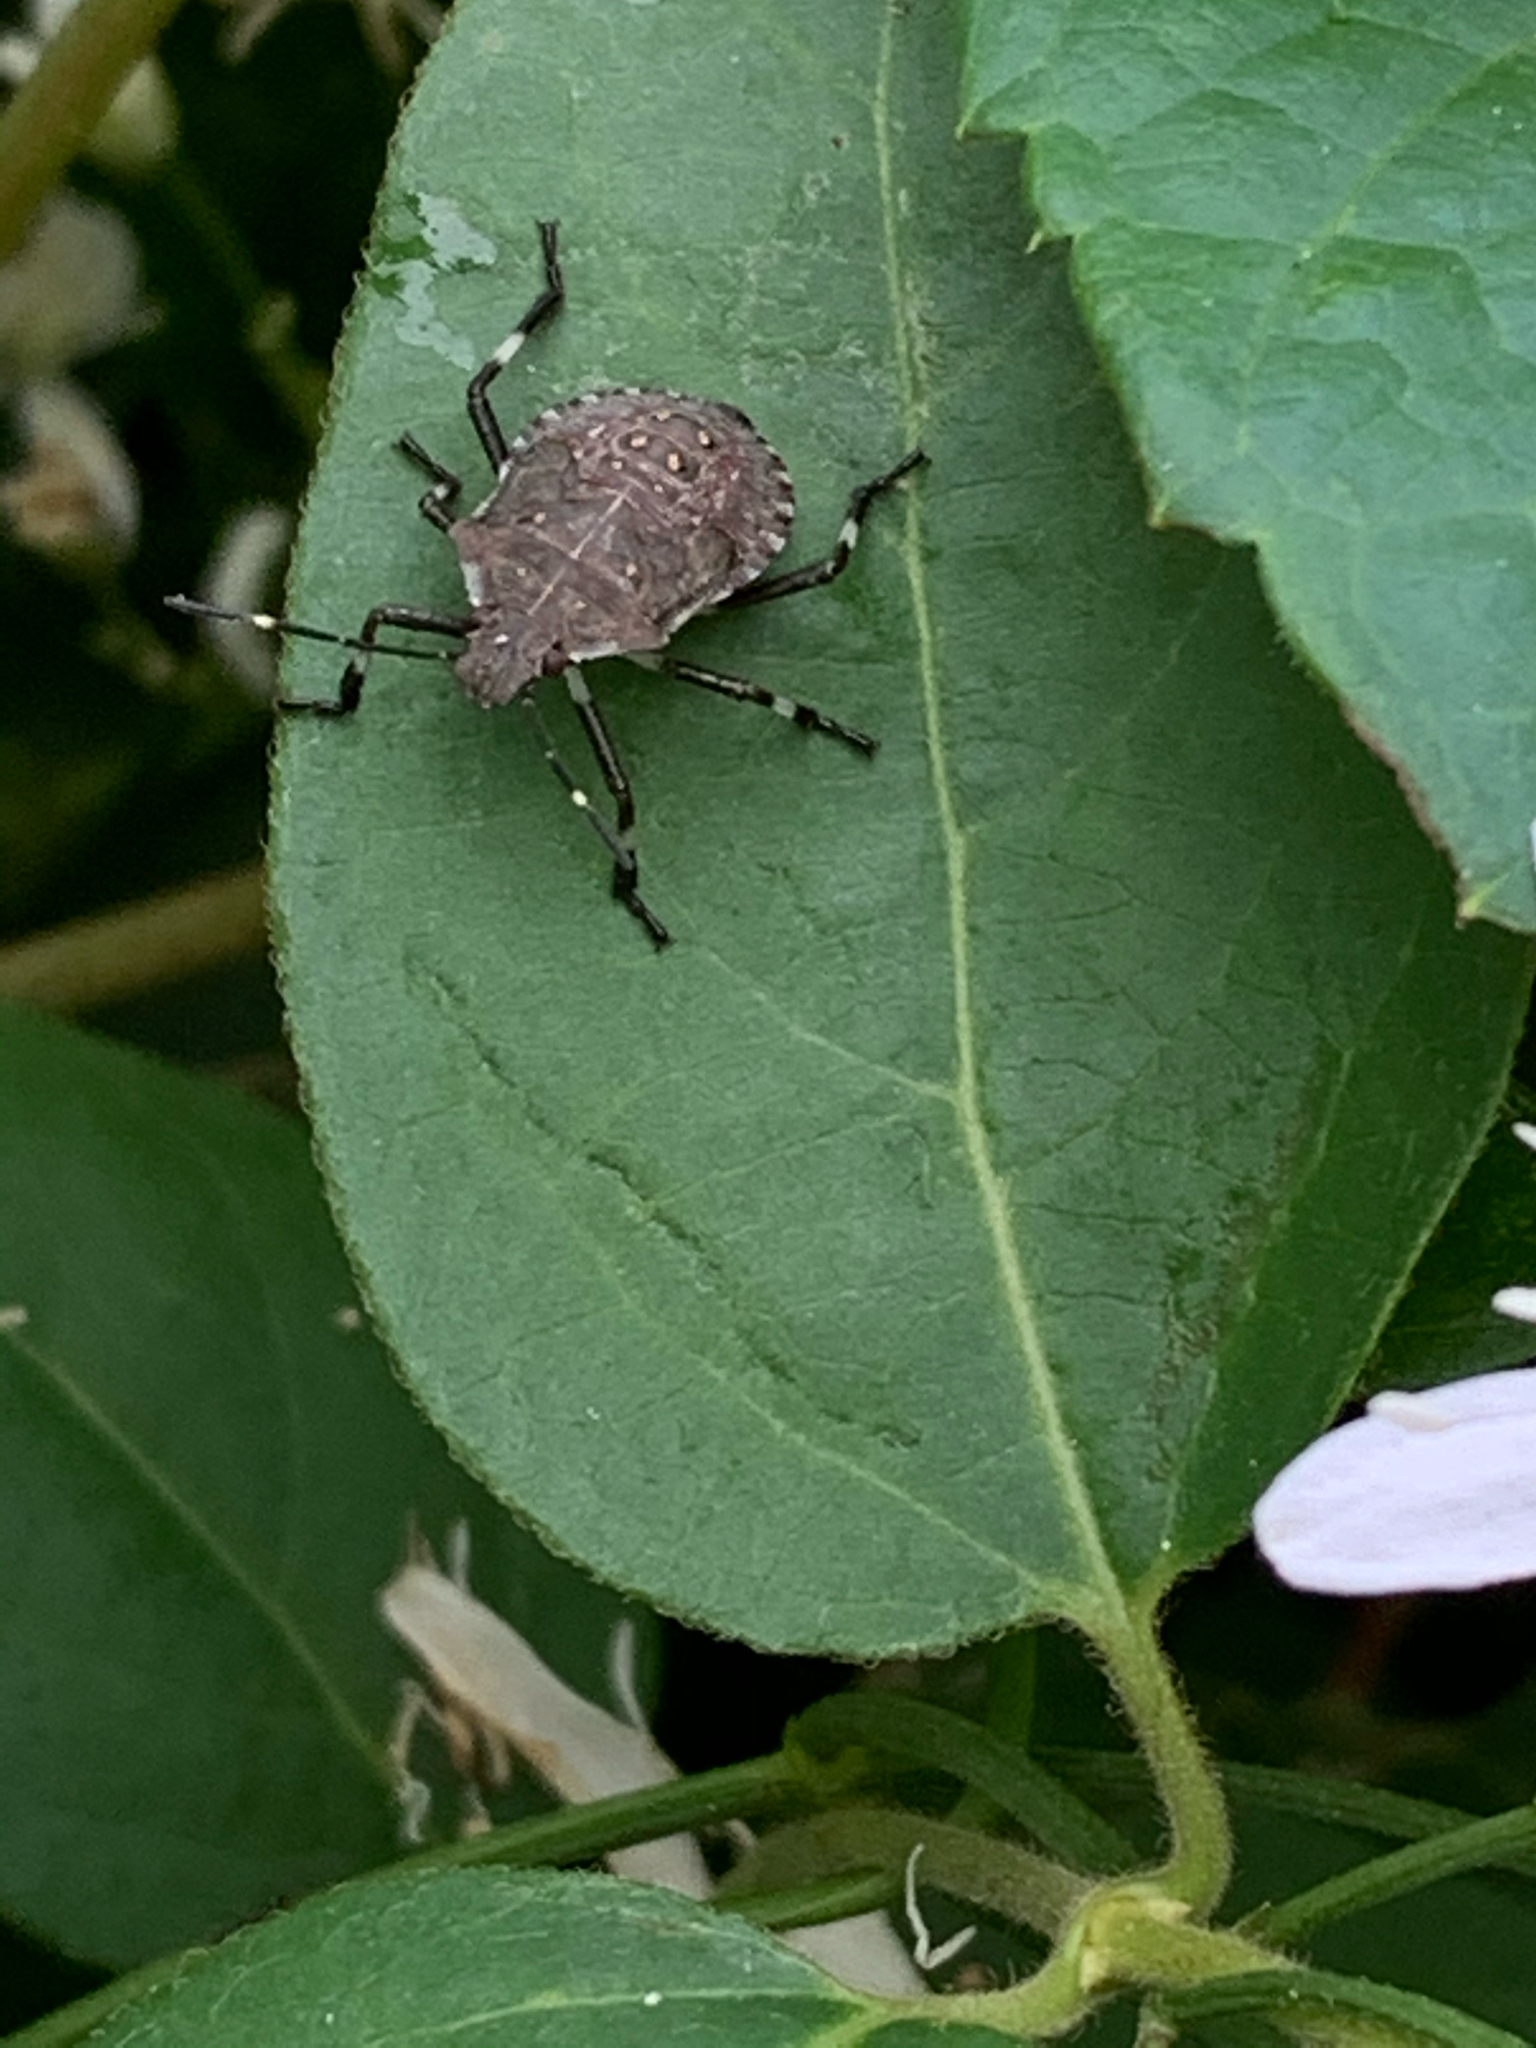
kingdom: Animalia
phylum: Arthropoda
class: Insecta
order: Hemiptera
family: Pentatomidae
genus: Halyomorpha
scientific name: Halyomorpha halys
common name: Brown marmorated stink bug
